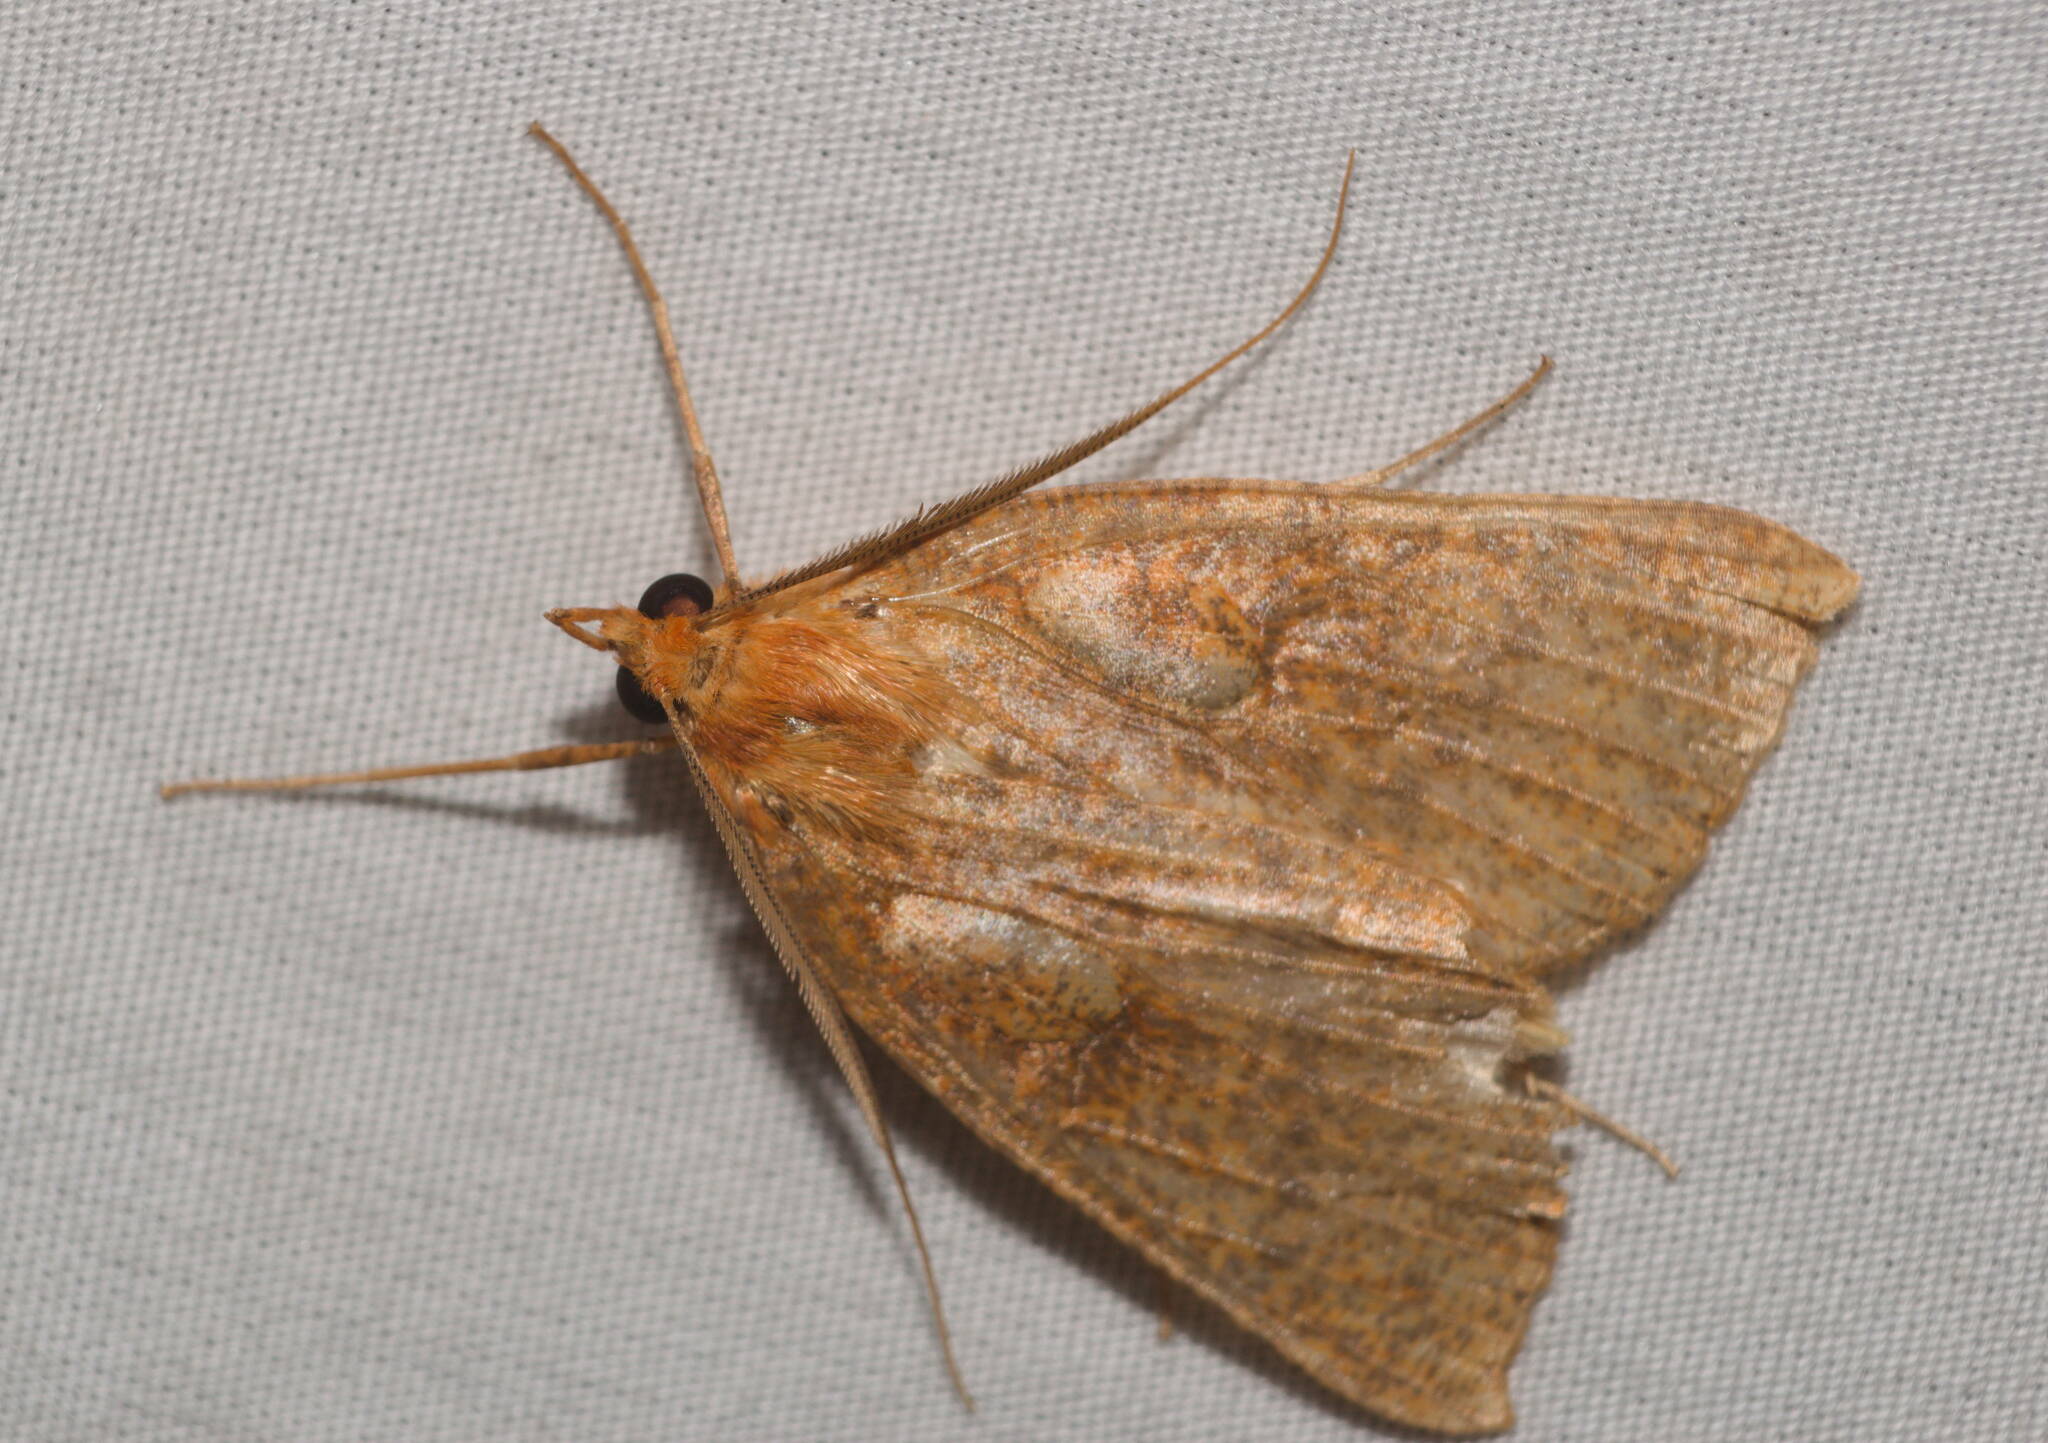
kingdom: Animalia
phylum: Arthropoda
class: Insecta
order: Lepidoptera
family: Geometridae
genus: Scotorythra
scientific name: Scotorythra epixantha
